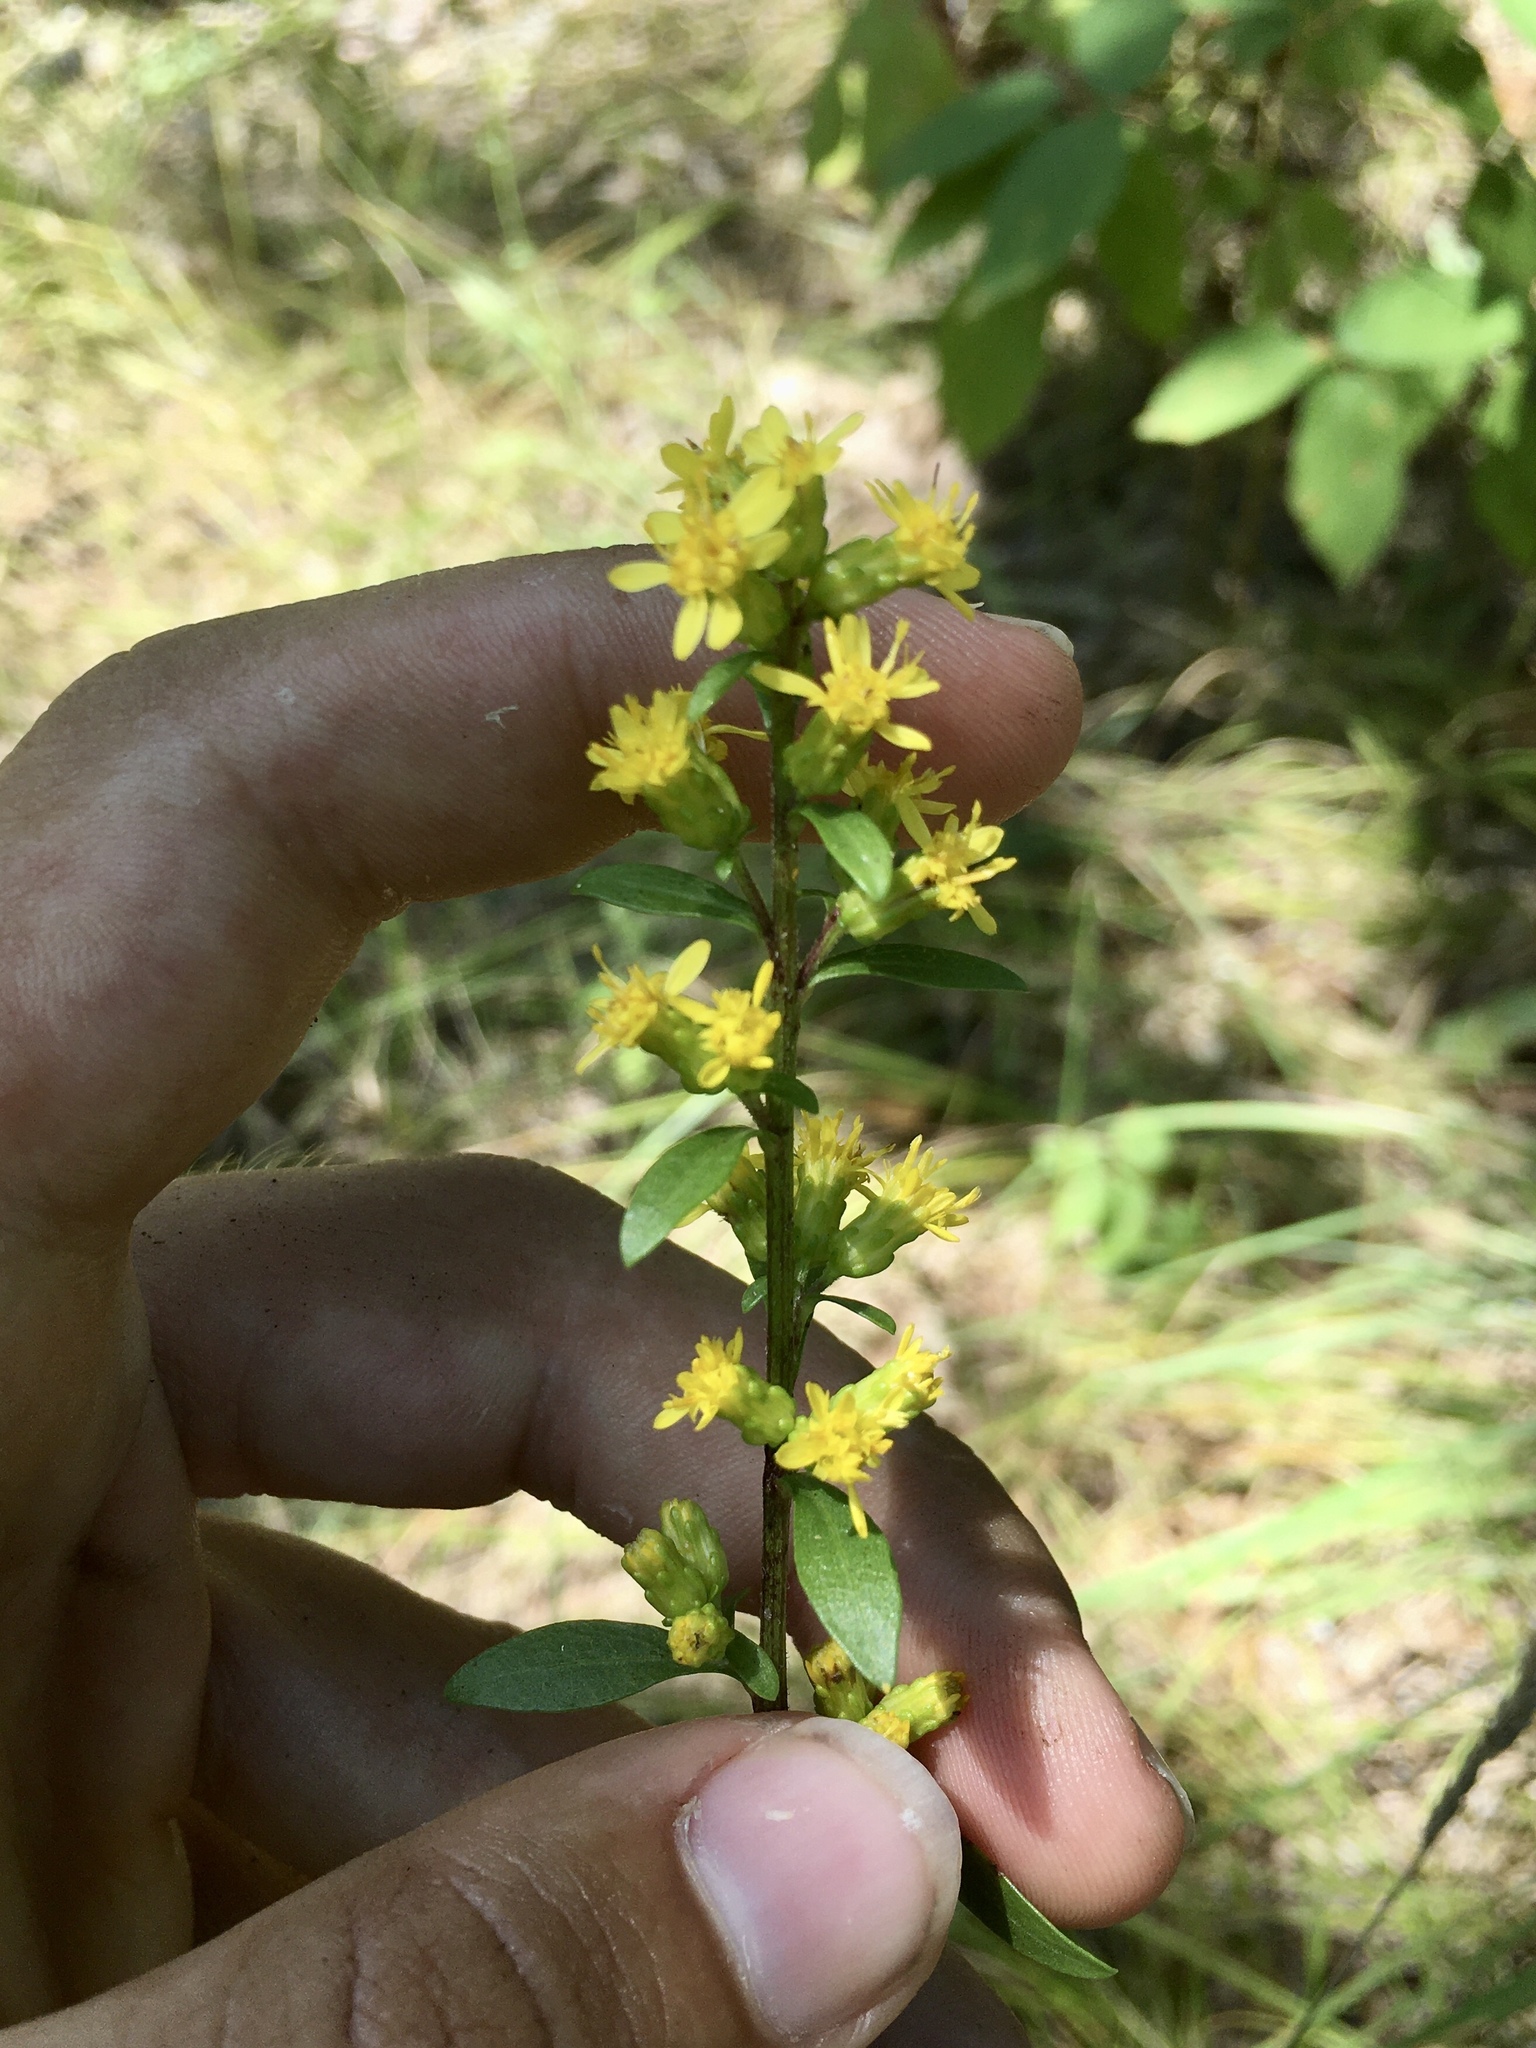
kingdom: Plantae
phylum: Tracheophyta
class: Magnoliopsida
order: Asterales
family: Asteraceae
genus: Solidago
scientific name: Solidago sciaphila
